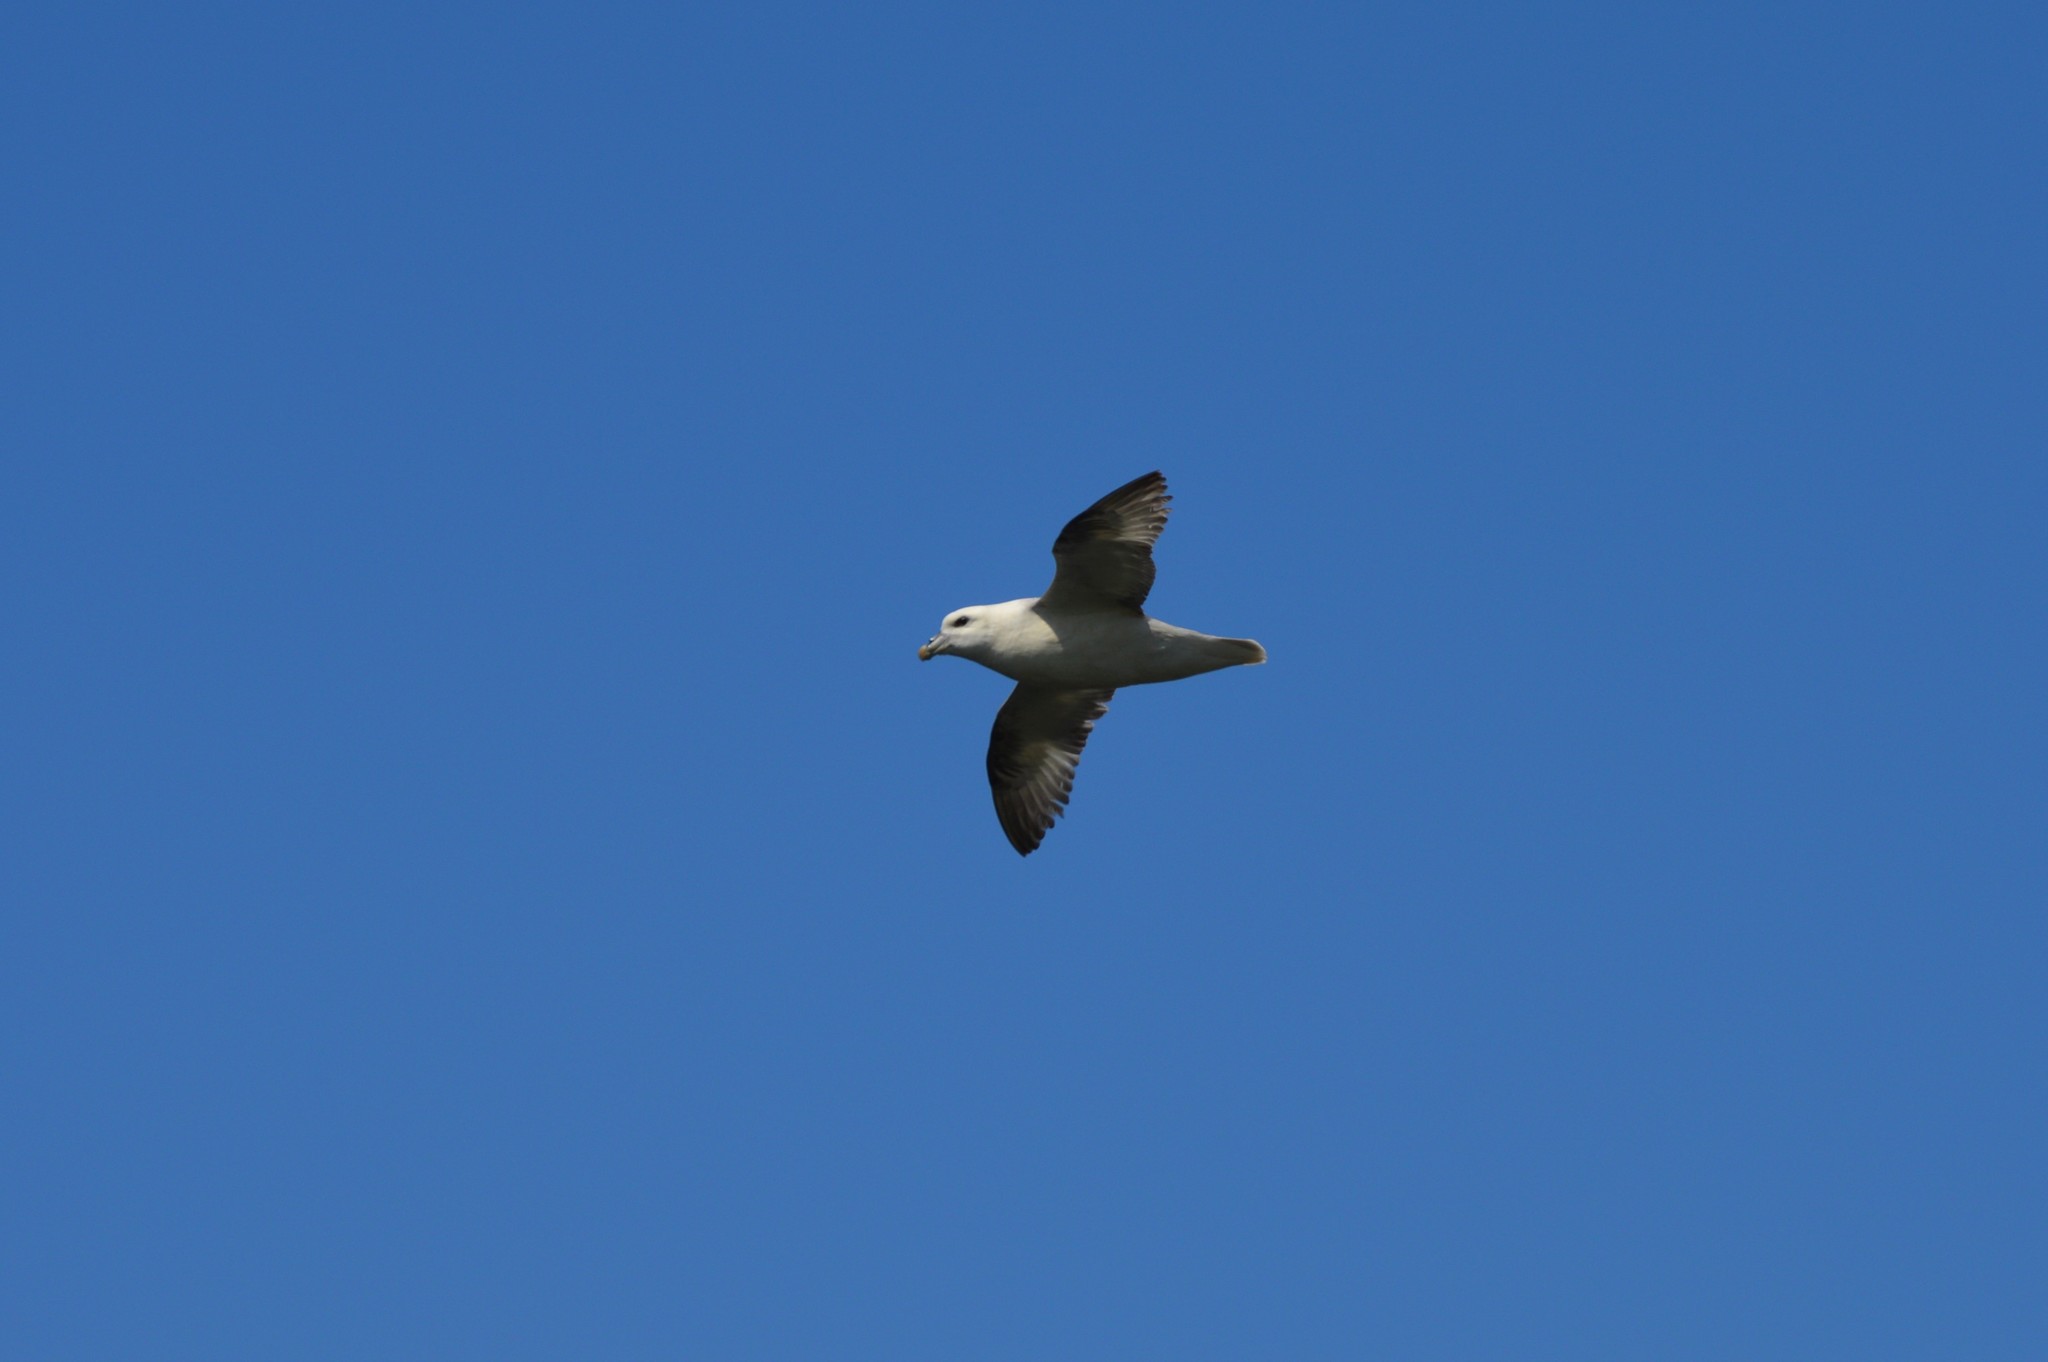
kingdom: Animalia
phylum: Chordata
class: Aves
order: Procellariiformes
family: Procellariidae
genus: Fulmarus
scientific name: Fulmarus glacialis
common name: Northern fulmar
